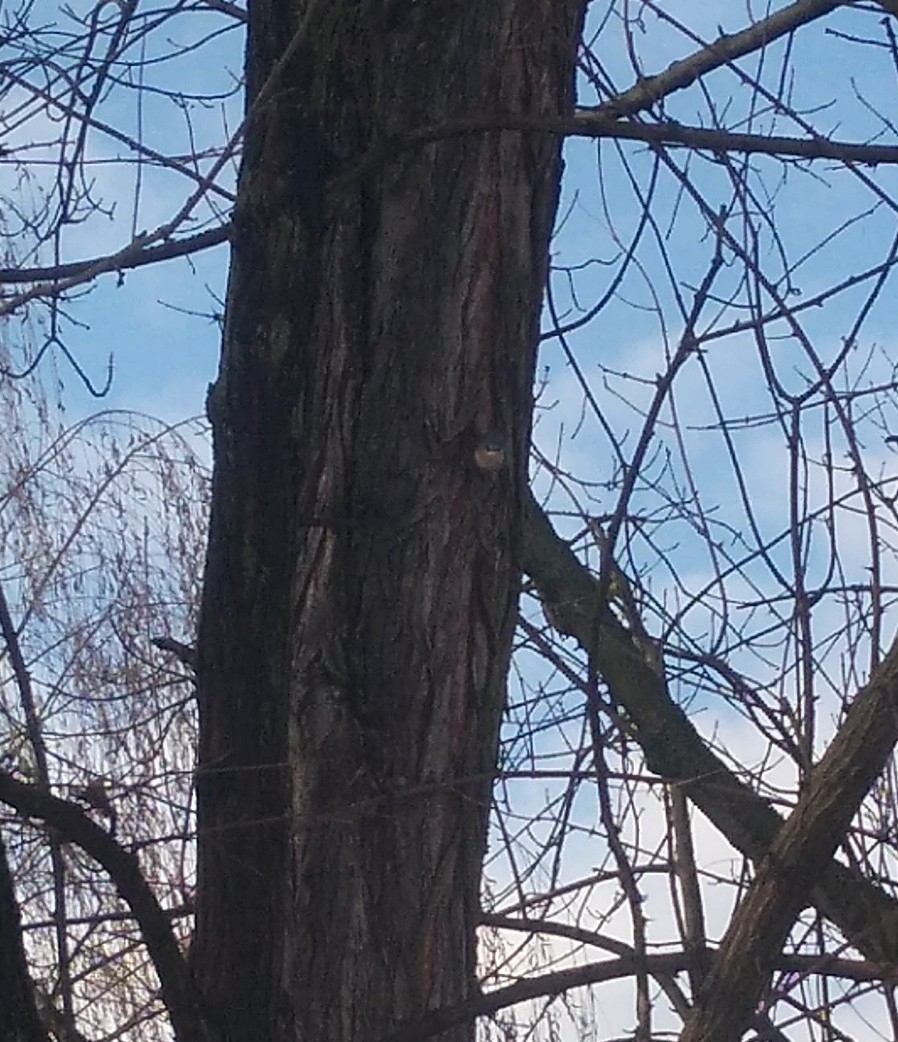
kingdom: Animalia
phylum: Chordata
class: Aves
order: Passeriformes
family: Sittidae
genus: Sitta
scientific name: Sitta europaea
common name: Eurasian nuthatch
